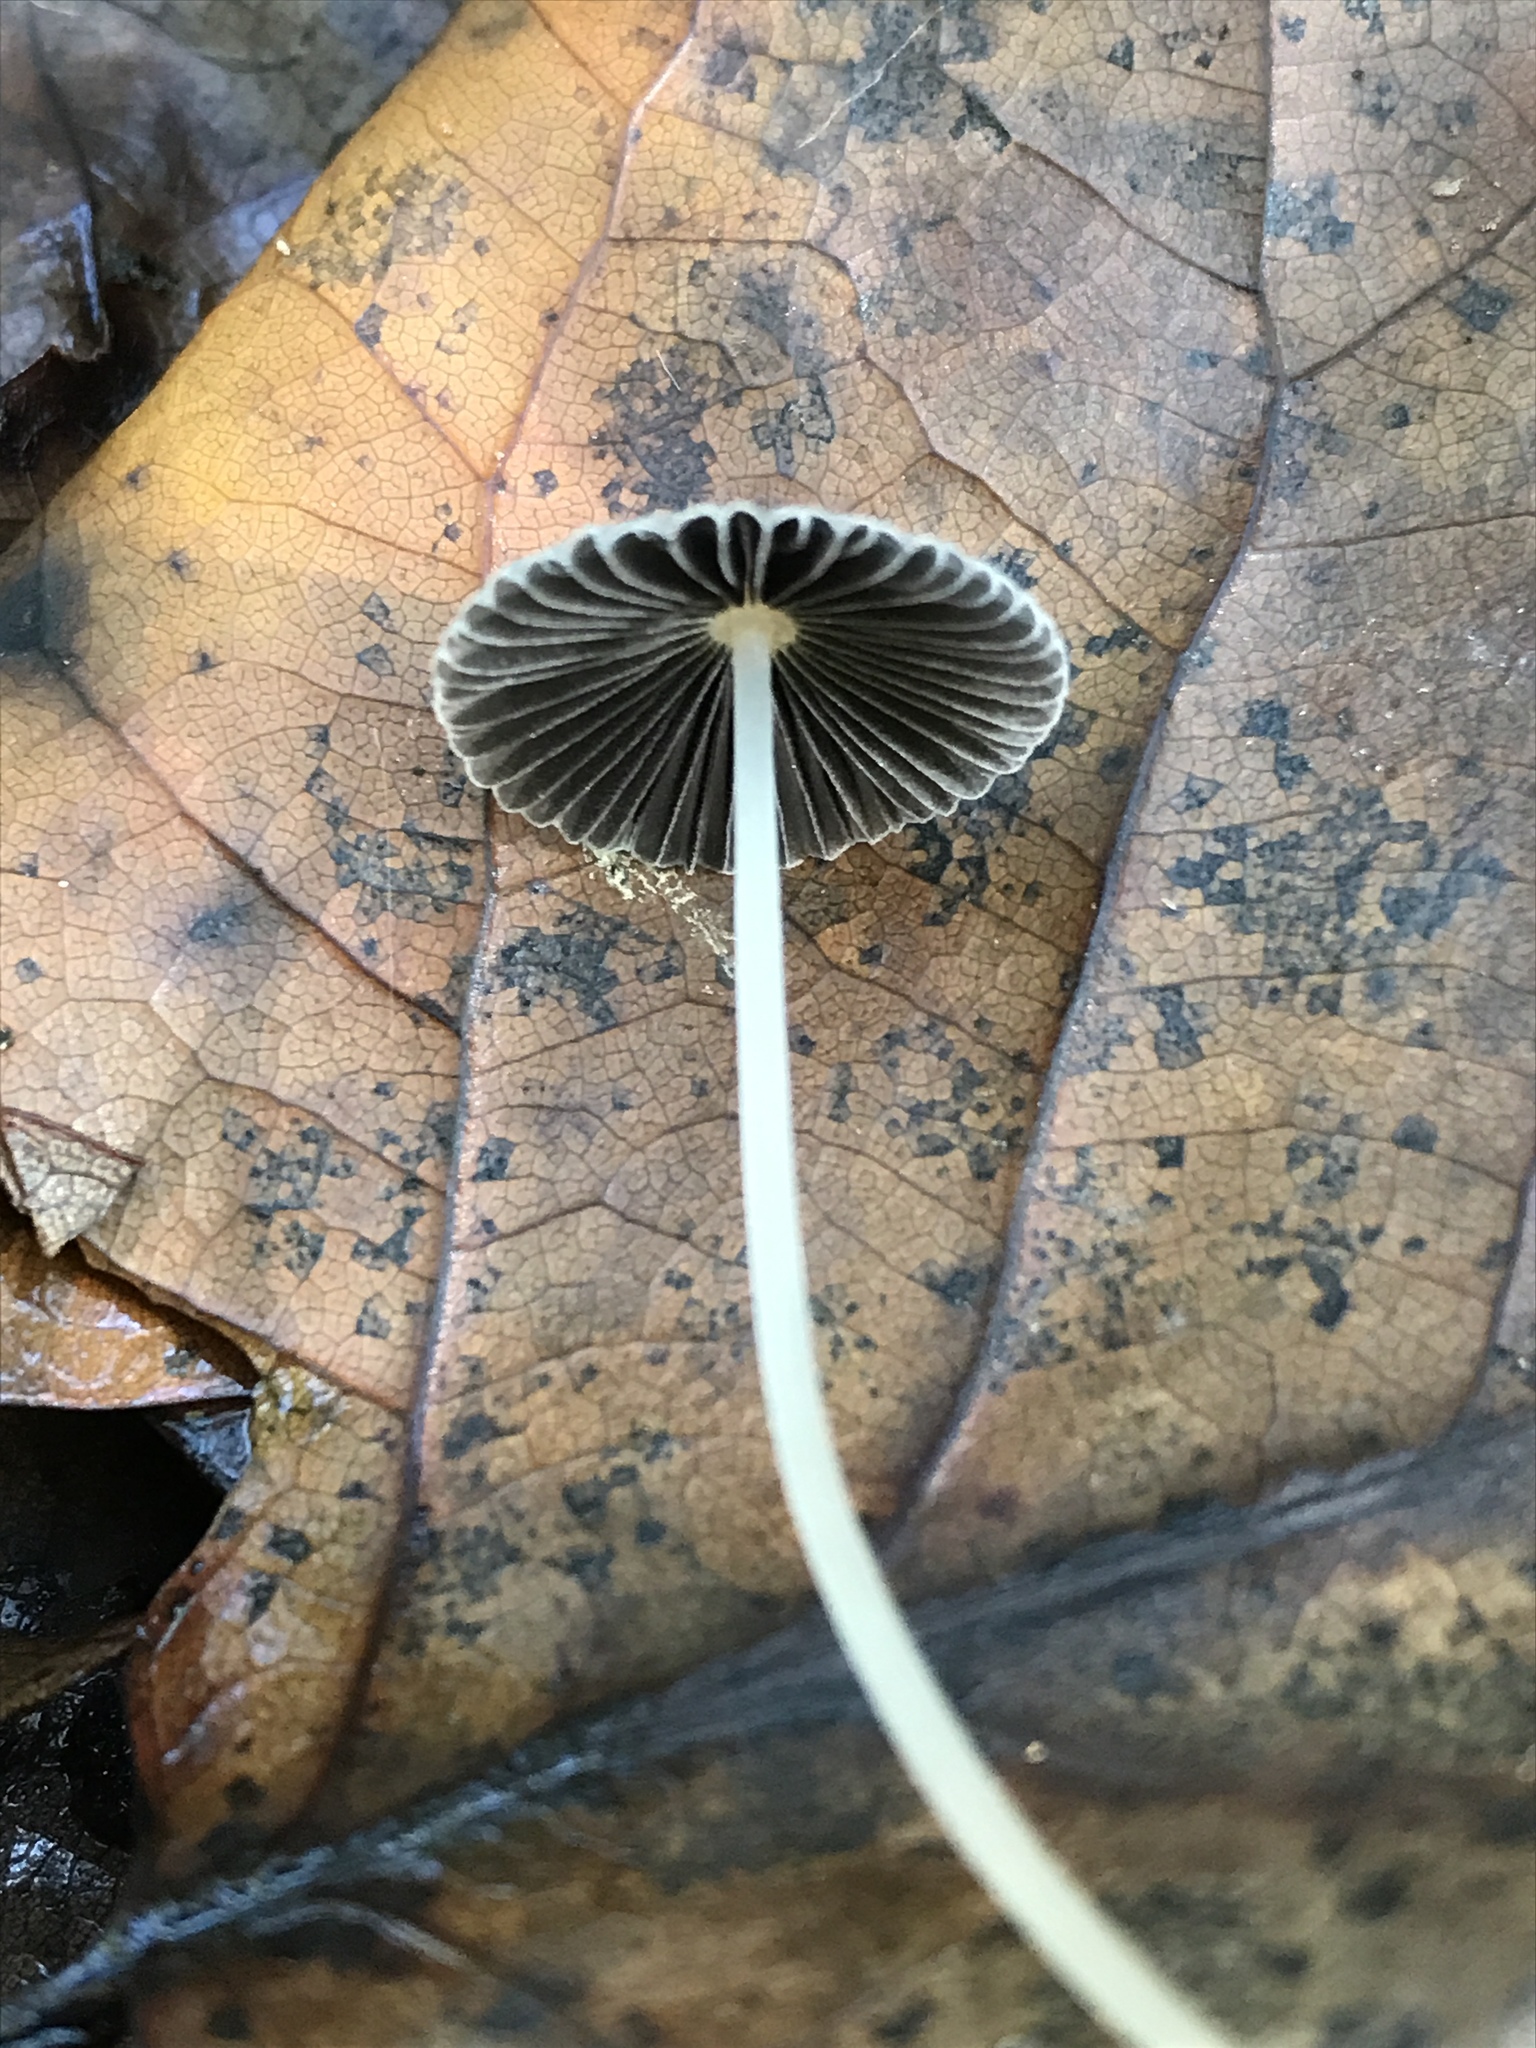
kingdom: Fungi
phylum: Basidiomycota
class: Agaricomycetes
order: Agaricales
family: Psathyrellaceae
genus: Parasola
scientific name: Parasola plicatilis
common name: Pleated inkcap
